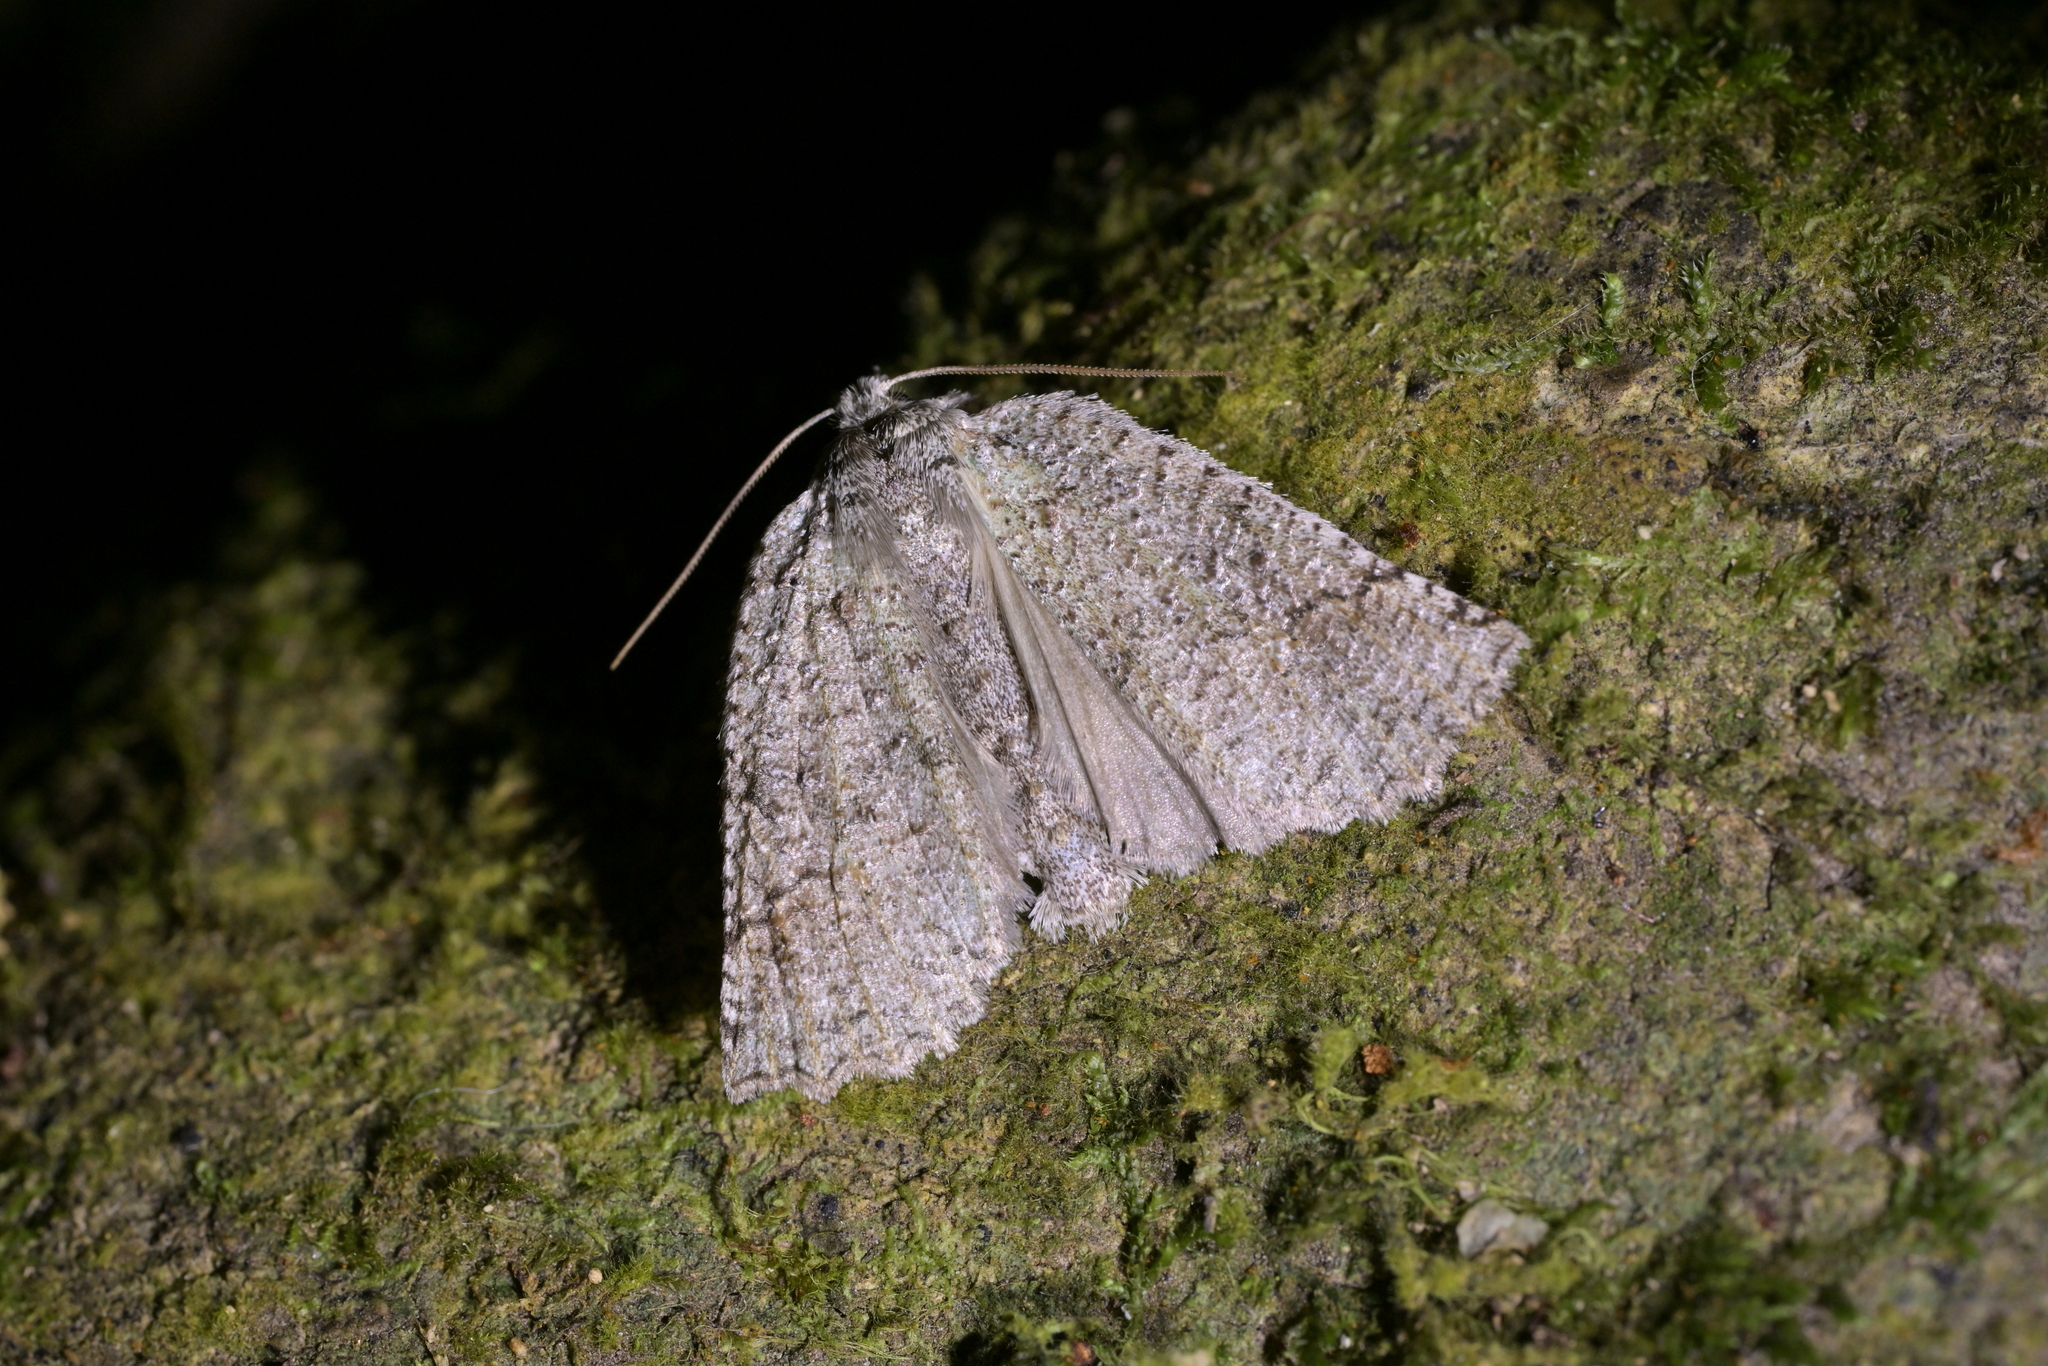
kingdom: Animalia
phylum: Arthropoda
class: Insecta
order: Lepidoptera
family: Geometridae
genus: Declana
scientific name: Declana floccosa
